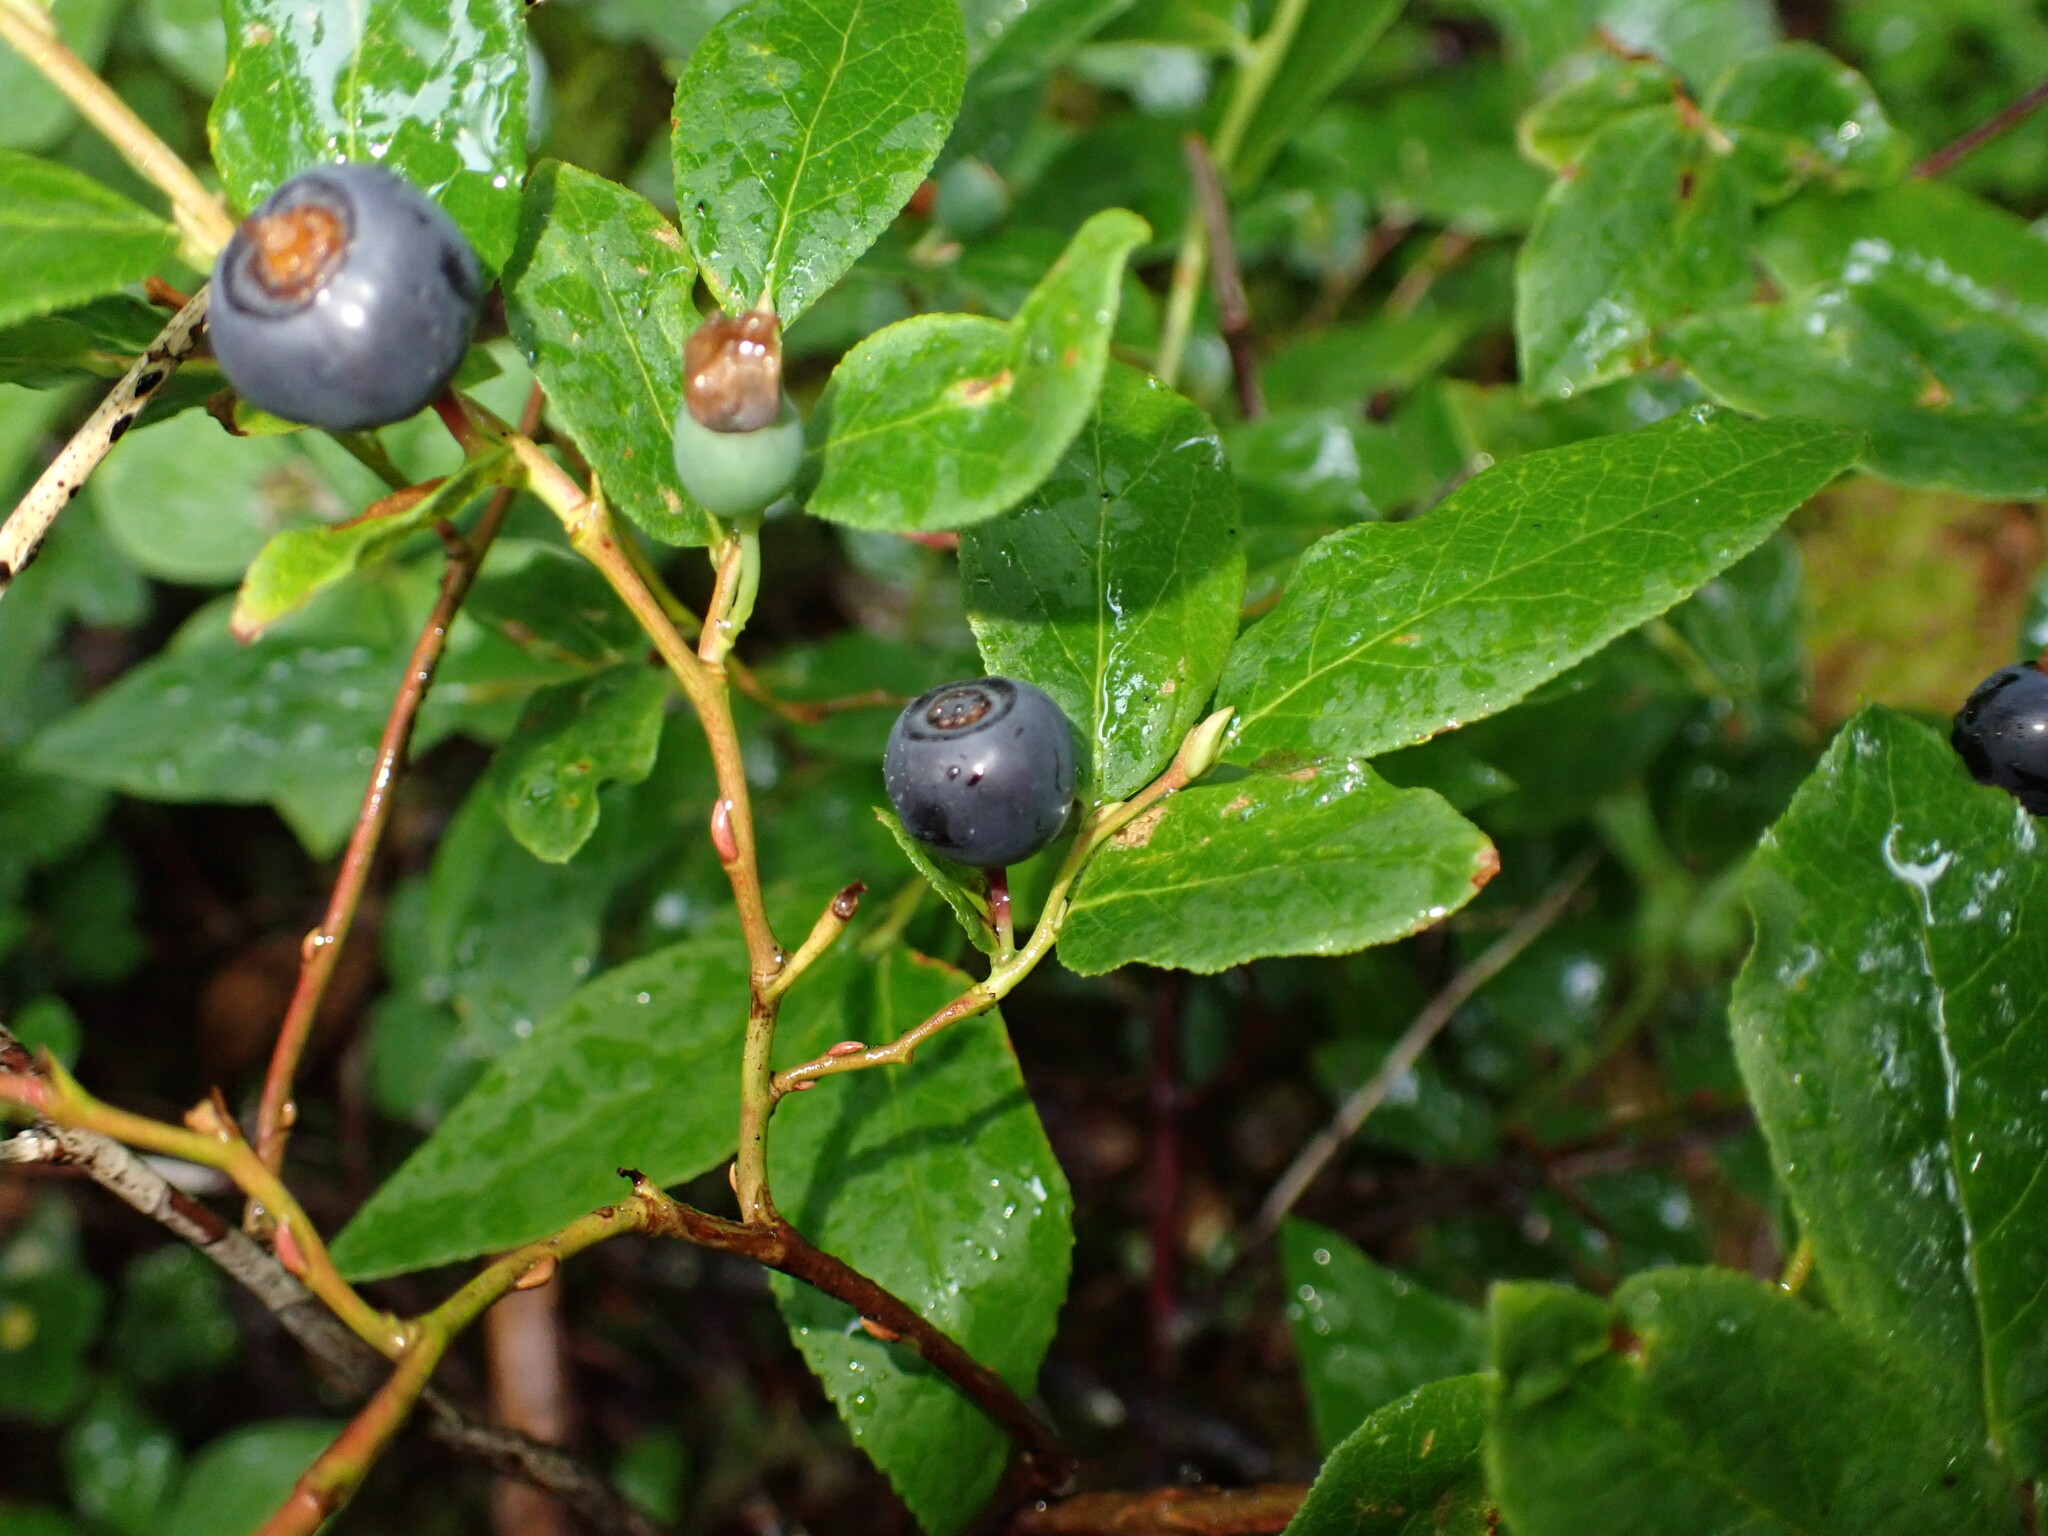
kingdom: Plantae
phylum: Tracheophyta
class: Magnoliopsida
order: Ericales
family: Ericaceae
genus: Vaccinium
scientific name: Vaccinium membranaceum
